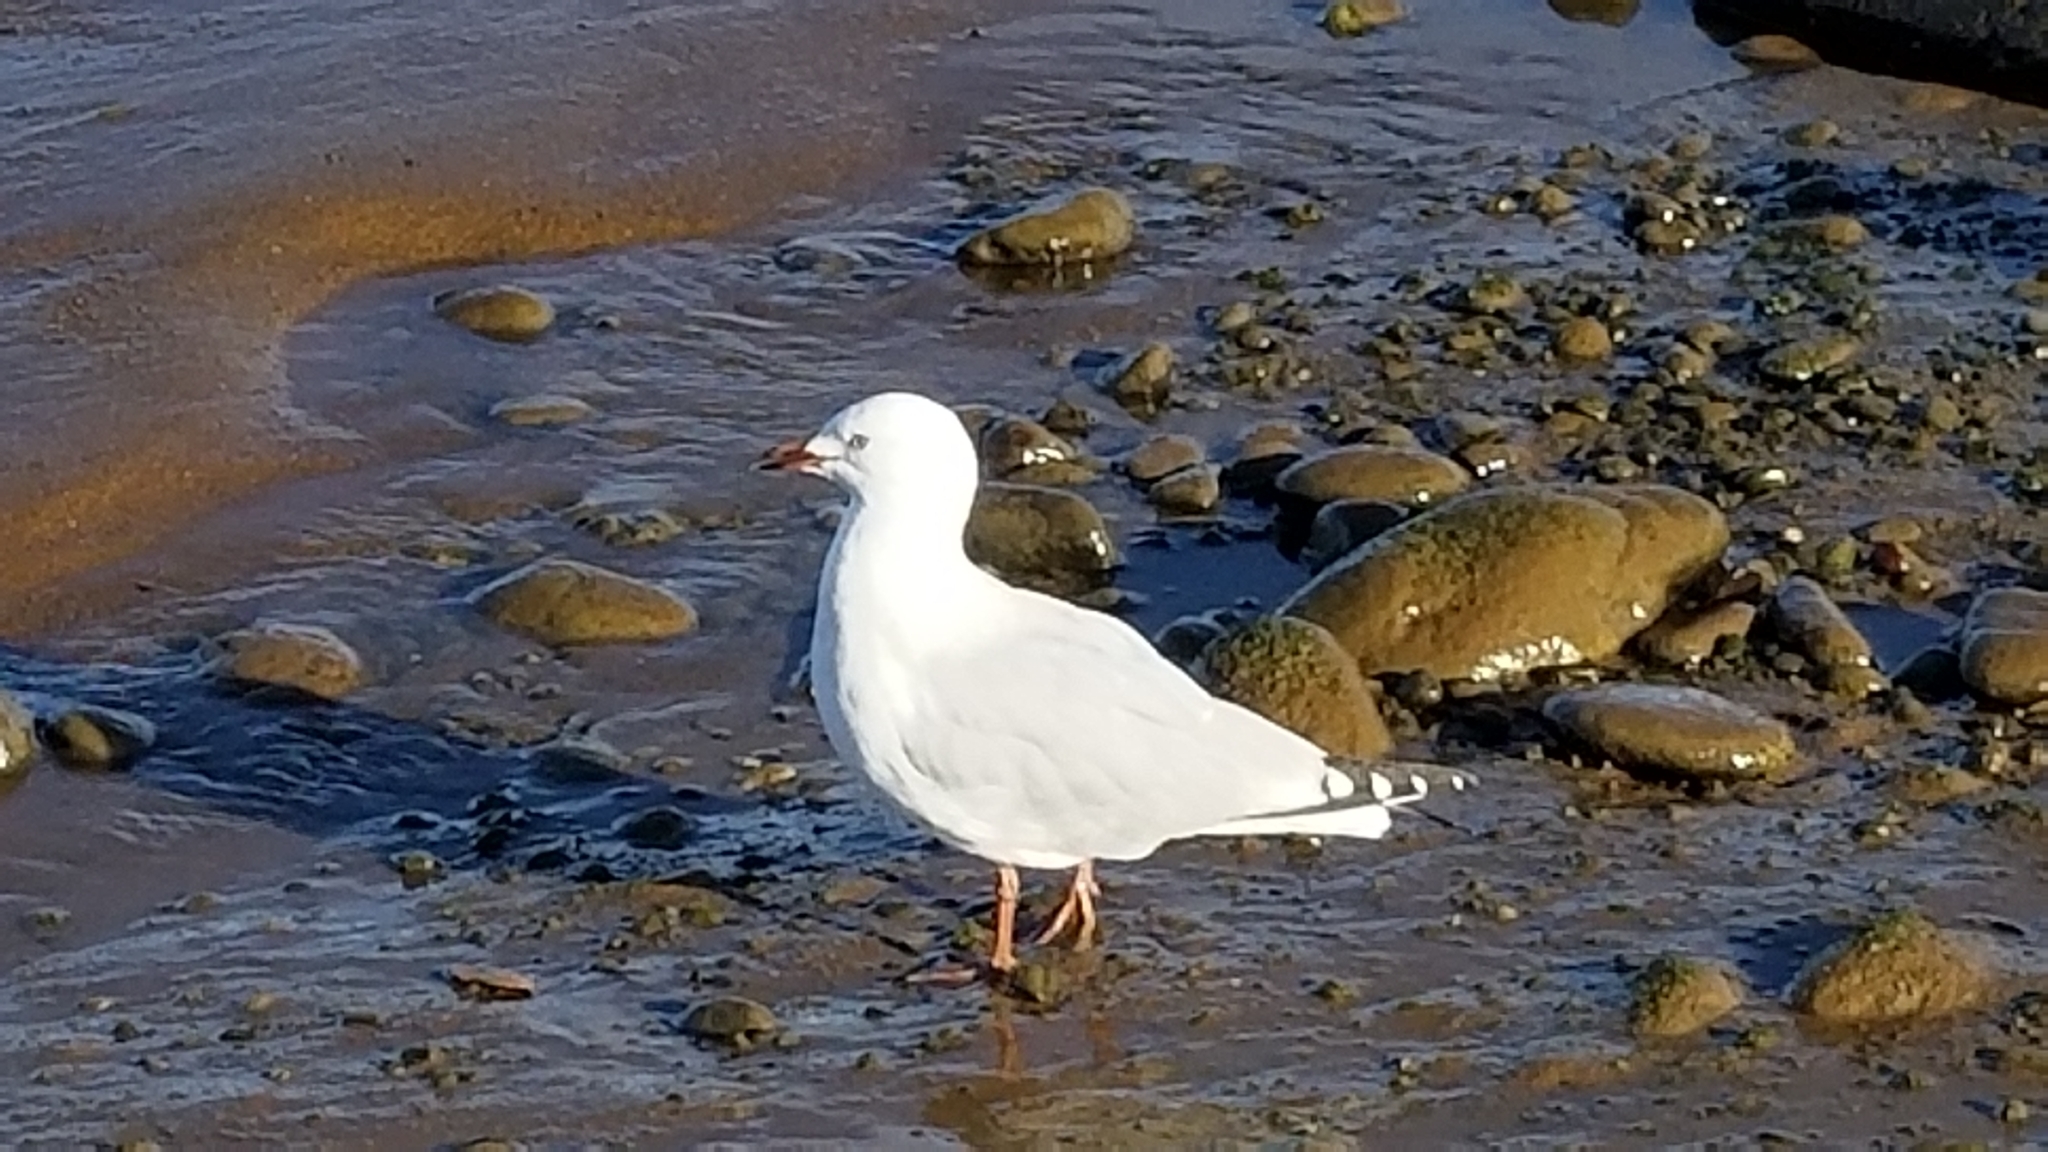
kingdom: Animalia
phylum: Chordata
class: Aves
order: Charadriiformes
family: Laridae
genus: Chroicocephalus
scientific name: Chroicocephalus novaehollandiae
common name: Silver gull
